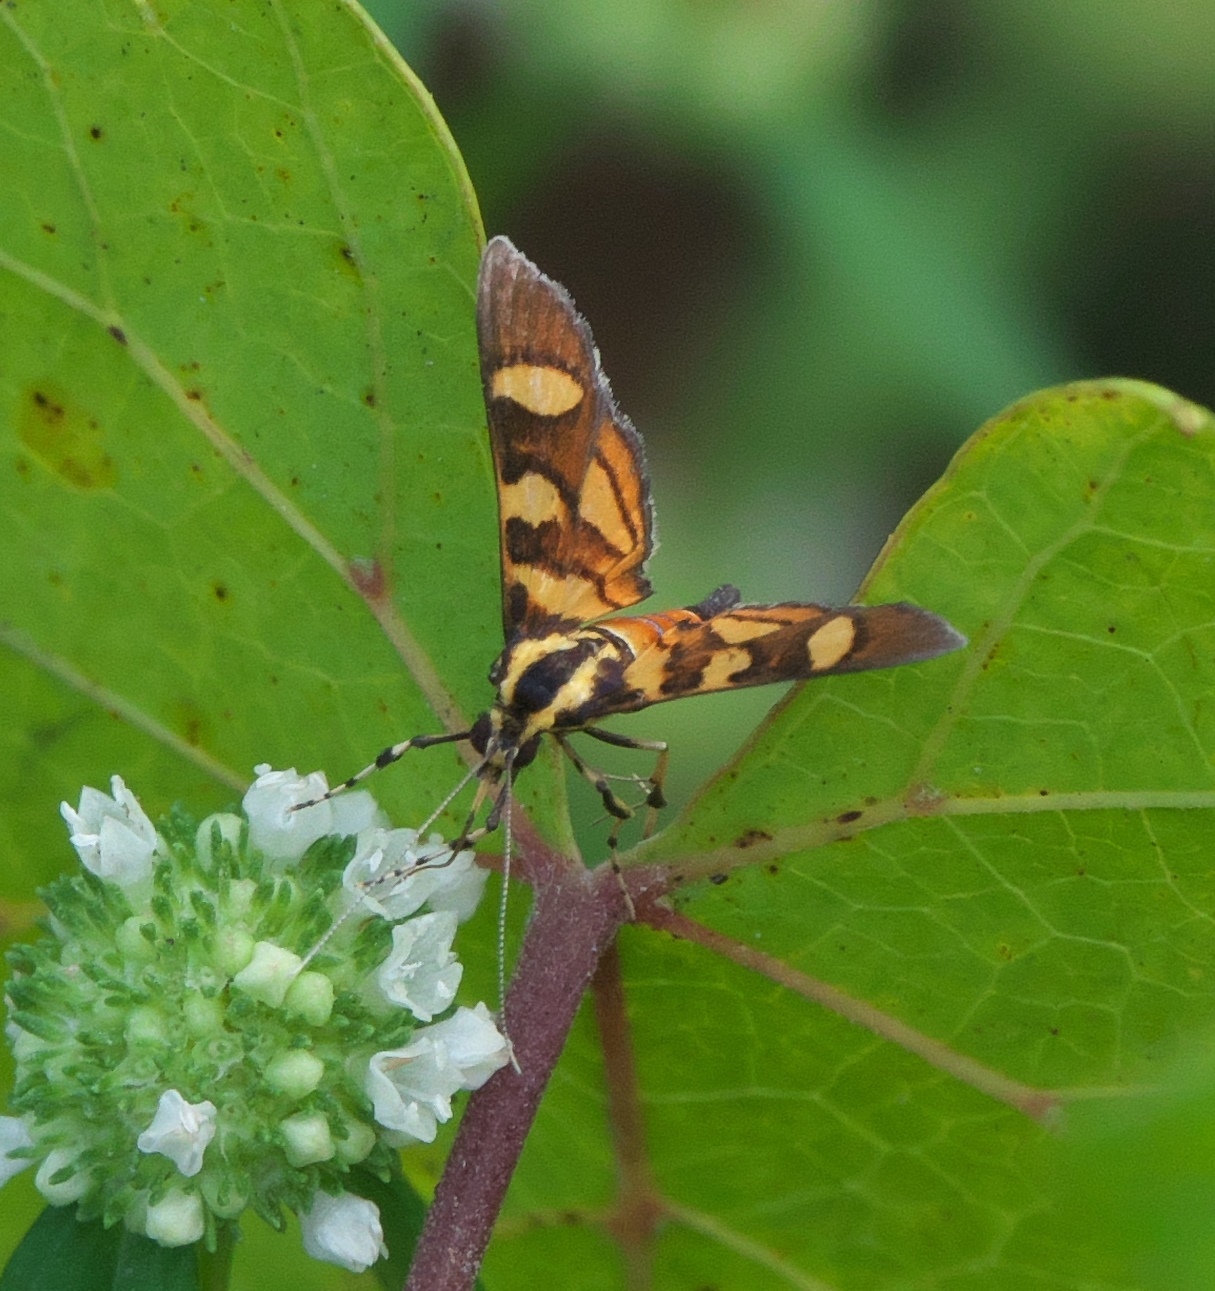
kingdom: Animalia
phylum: Arthropoda
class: Insecta
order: Lepidoptera
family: Crambidae
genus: Syngamia
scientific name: Syngamia florella
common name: Orange-spotted flower moth
